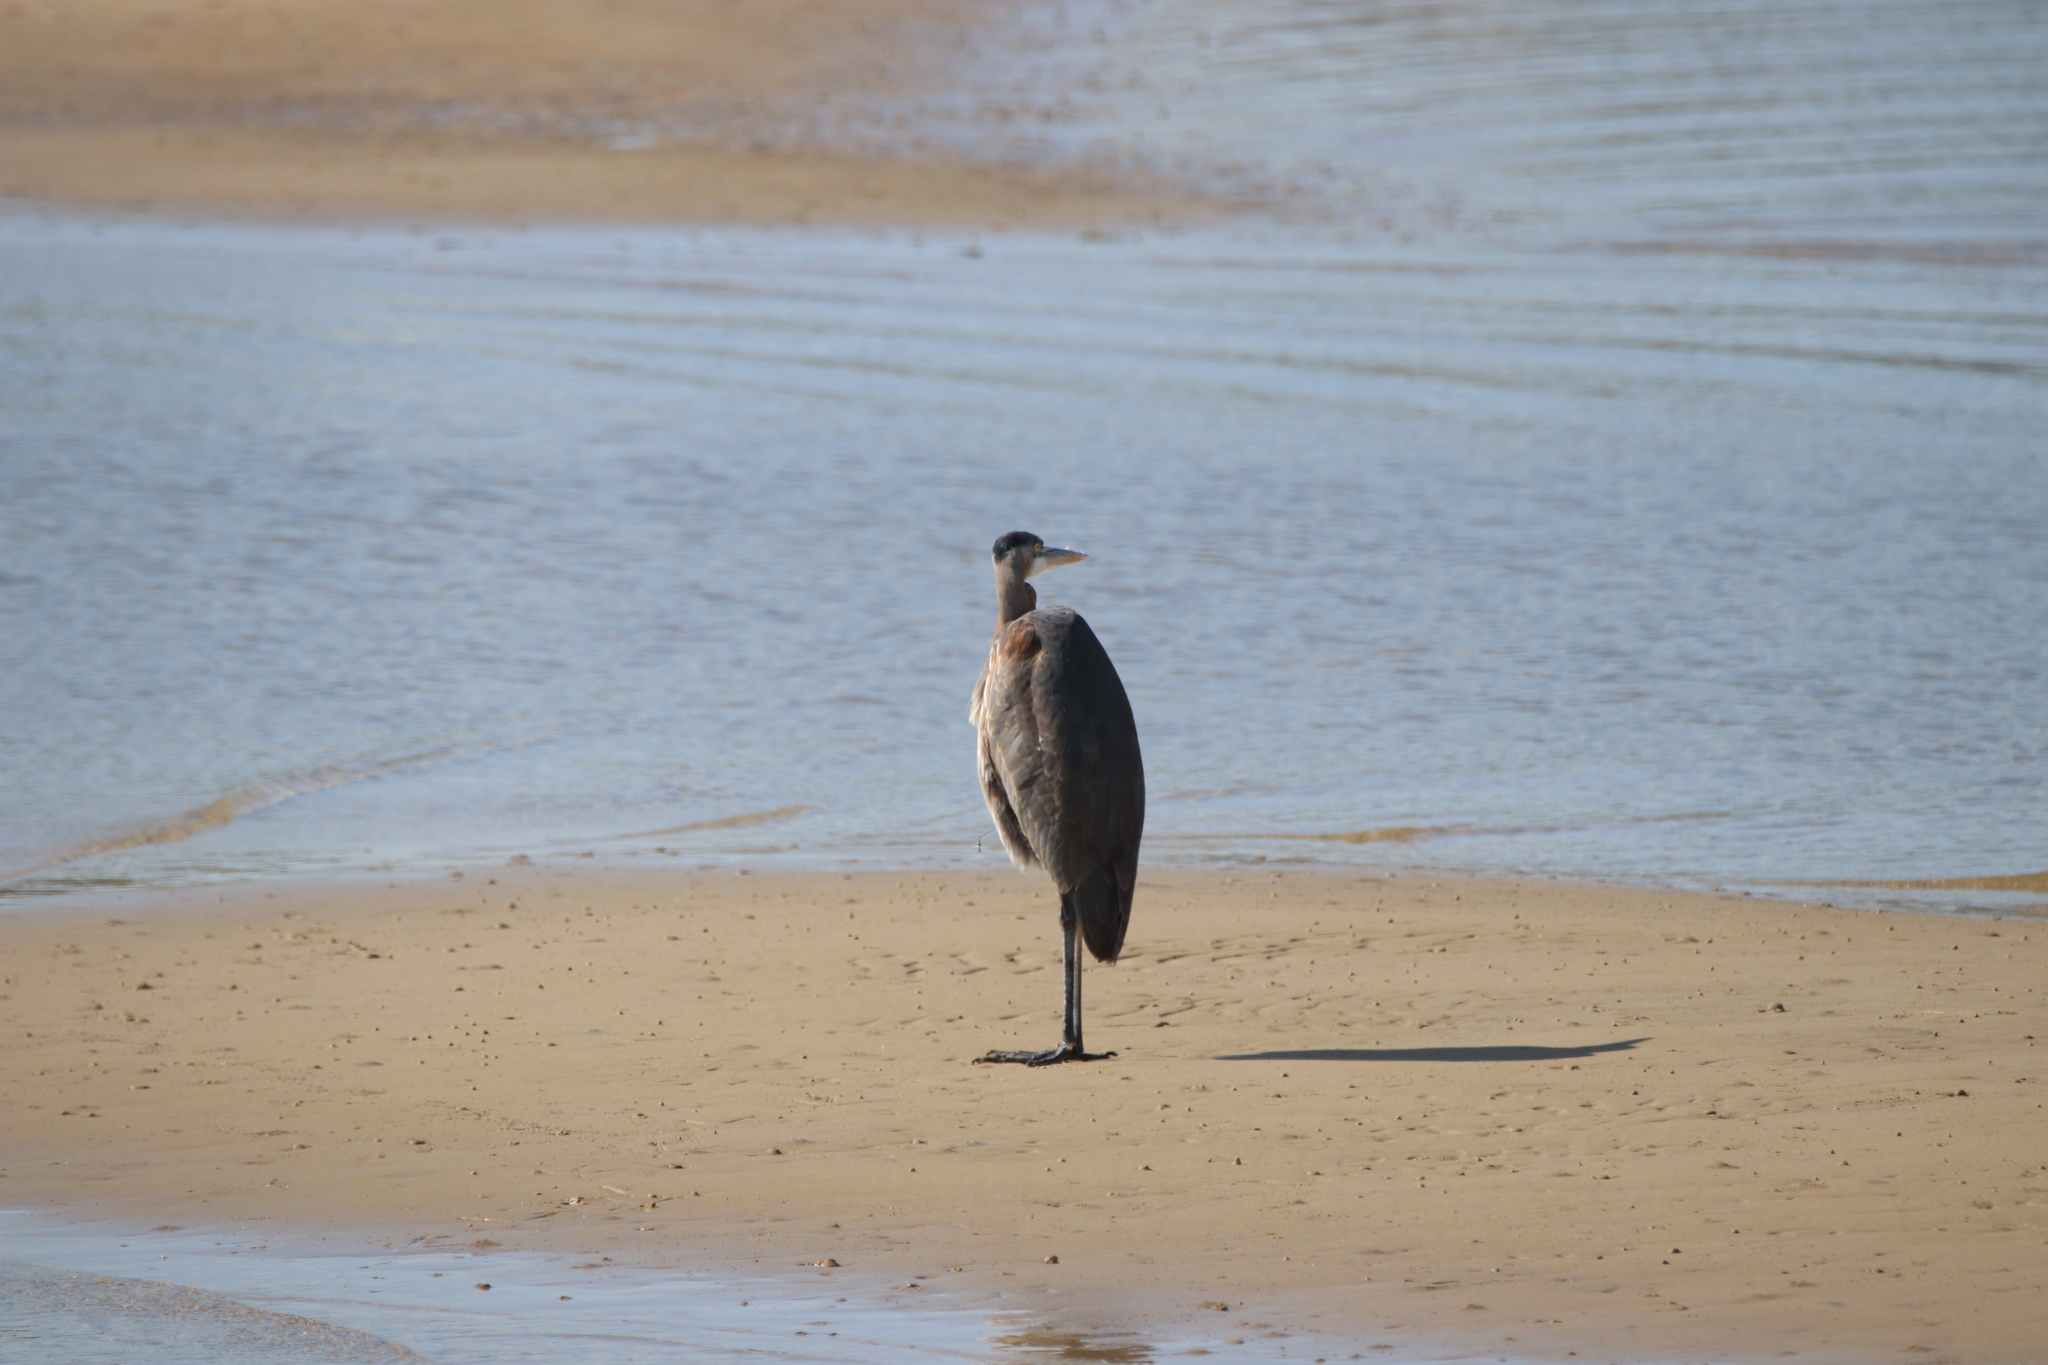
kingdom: Animalia
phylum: Chordata
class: Aves
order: Pelecaniformes
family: Ardeidae
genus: Ardea
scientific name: Ardea herodias
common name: Great blue heron
